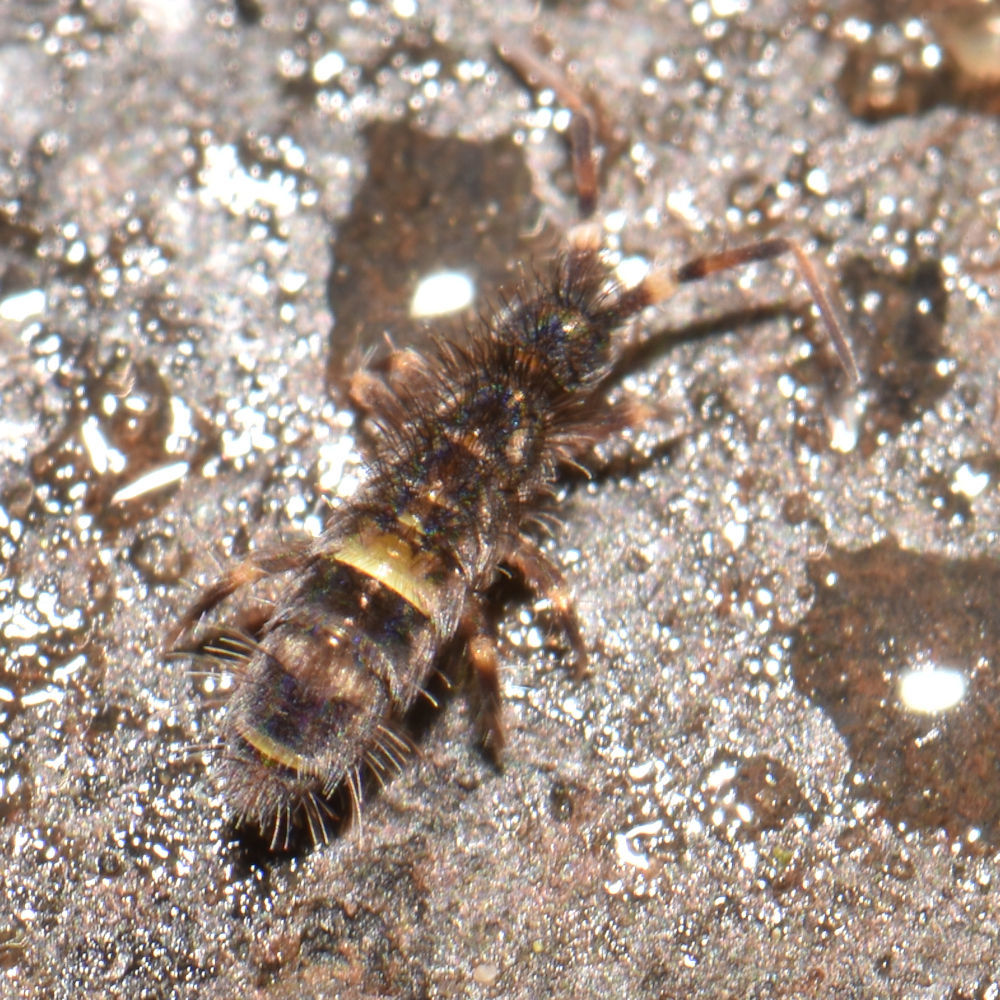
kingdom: Animalia
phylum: Arthropoda
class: Collembola
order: Entomobryomorpha
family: Orchesellidae
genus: Orchesella
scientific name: Orchesella cincta
